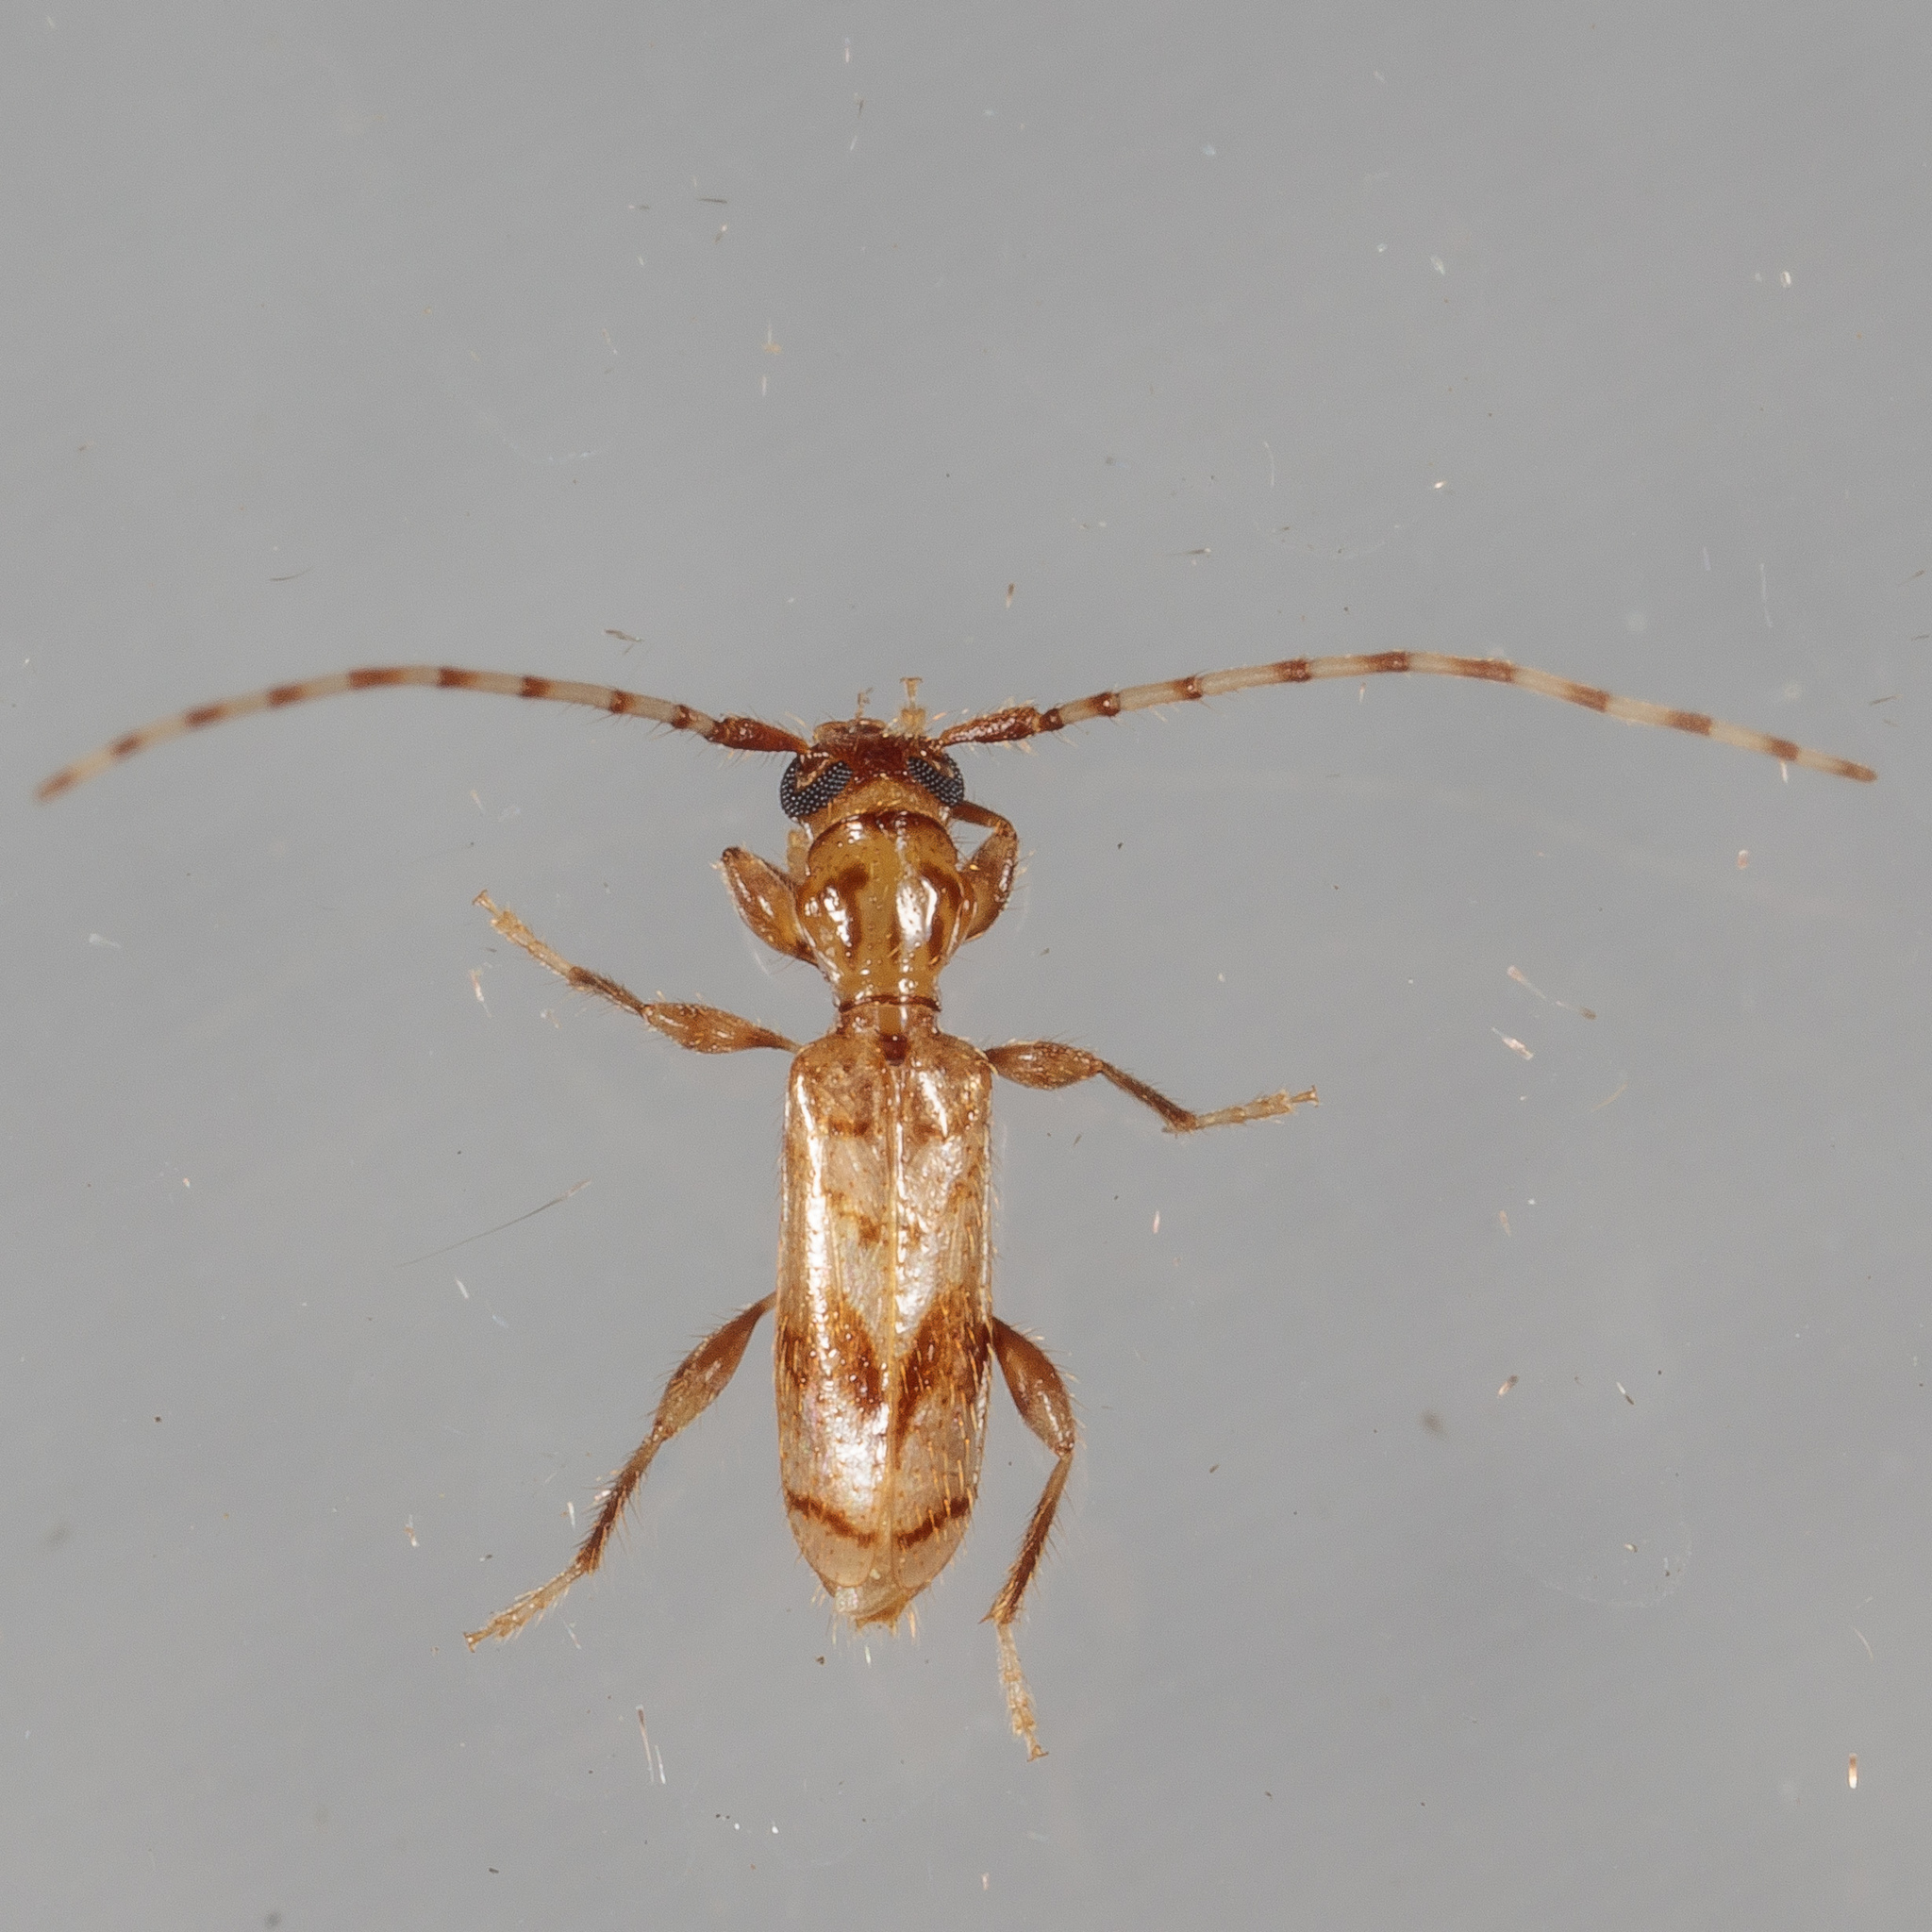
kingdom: Animalia
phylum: Arthropoda
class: Insecta
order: Coleoptera
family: Cerambycidae
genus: Obrium
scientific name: Obrium maculatum
